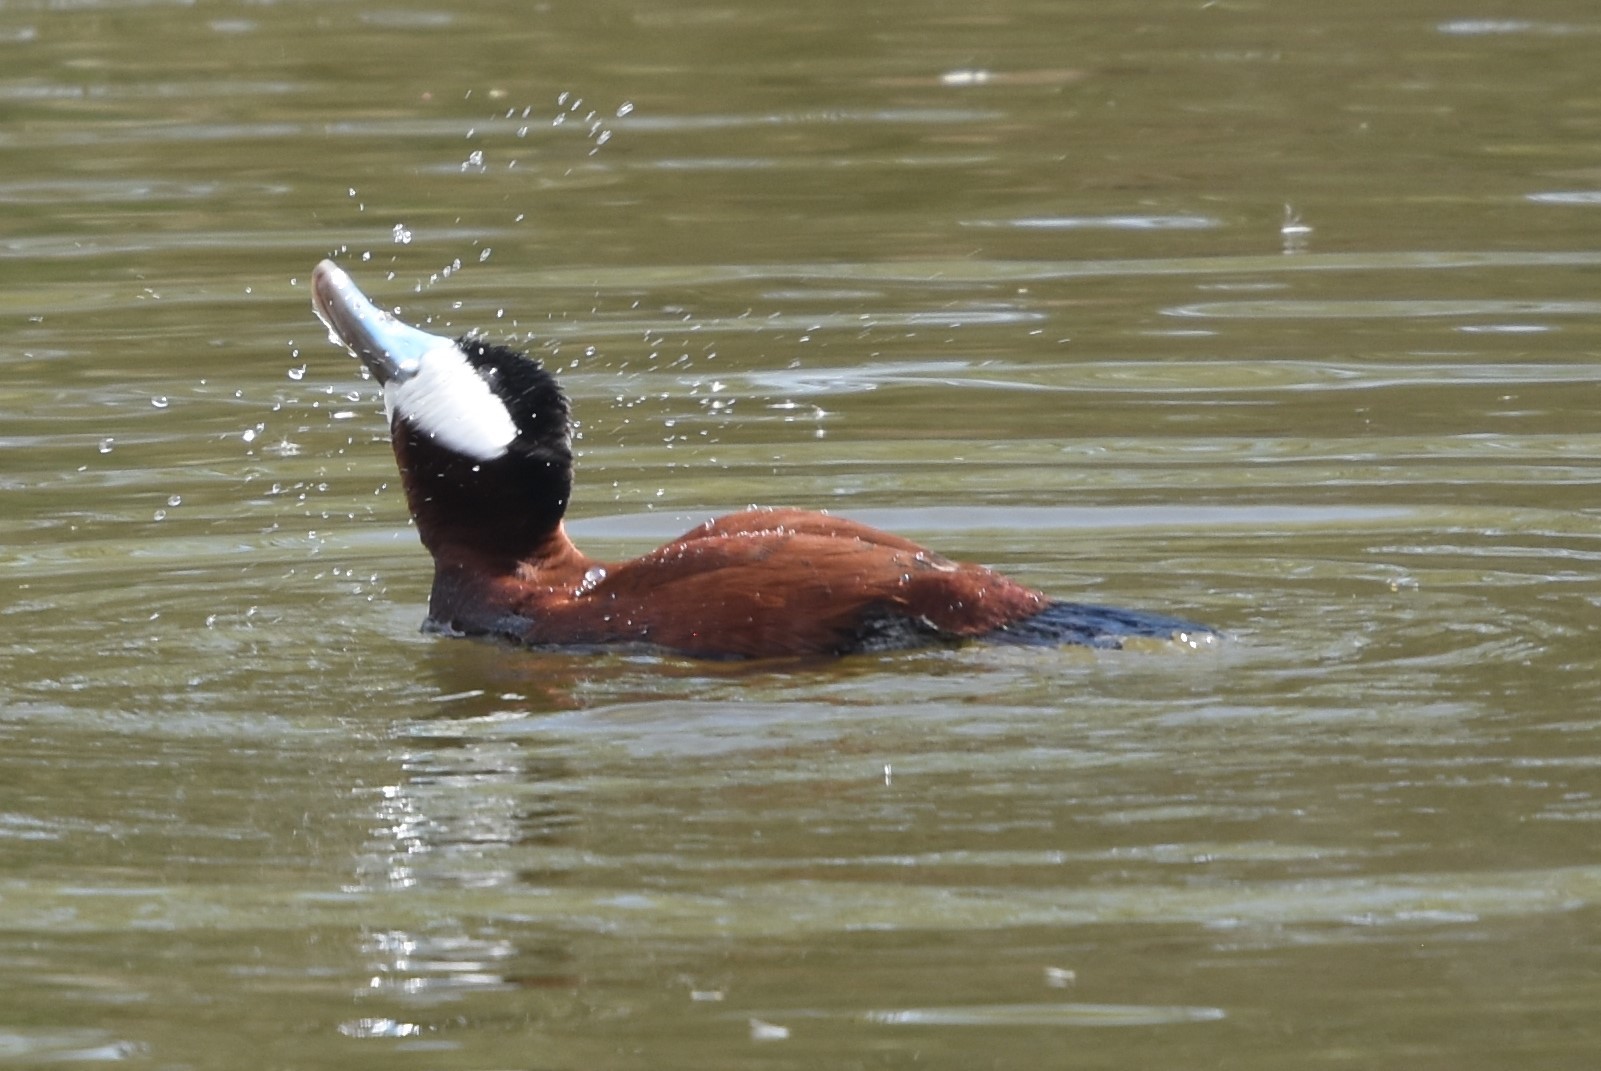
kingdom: Animalia
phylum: Chordata
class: Aves
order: Anseriformes
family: Anatidae
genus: Oxyura
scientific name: Oxyura jamaicensis
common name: Ruddy duck
